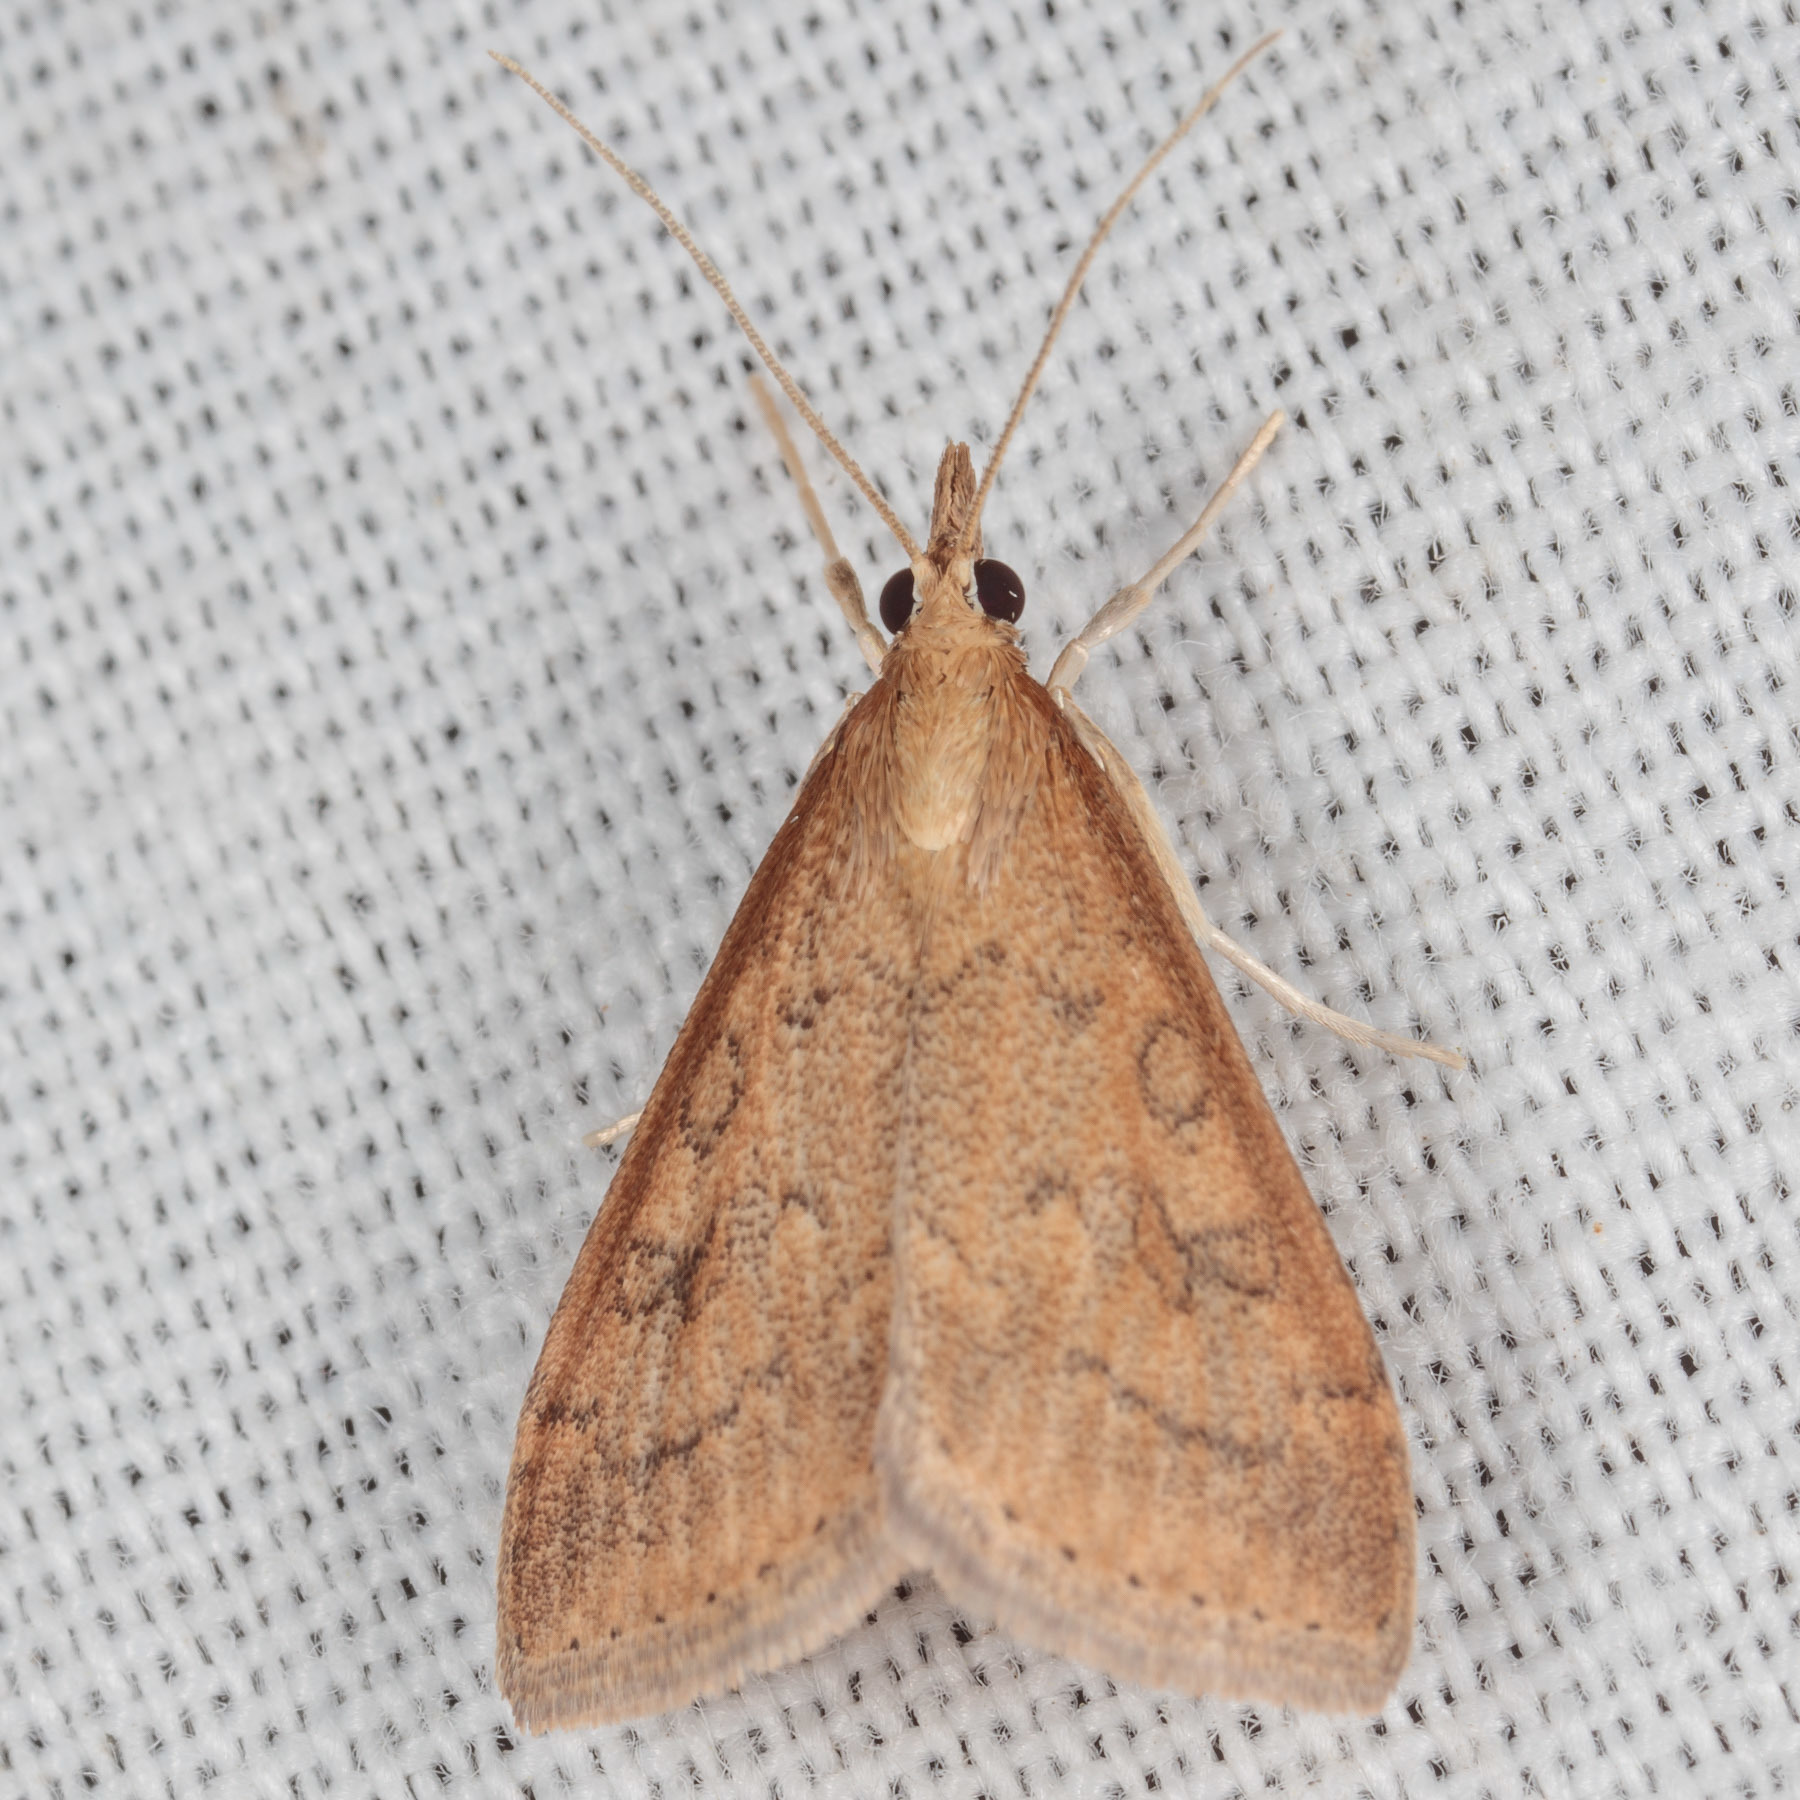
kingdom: Animalia
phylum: Arthropoda
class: Insecta
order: Lepidoptera
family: Crambidae
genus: Udea
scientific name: Udea rubigalis
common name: Celery leaftier moth
